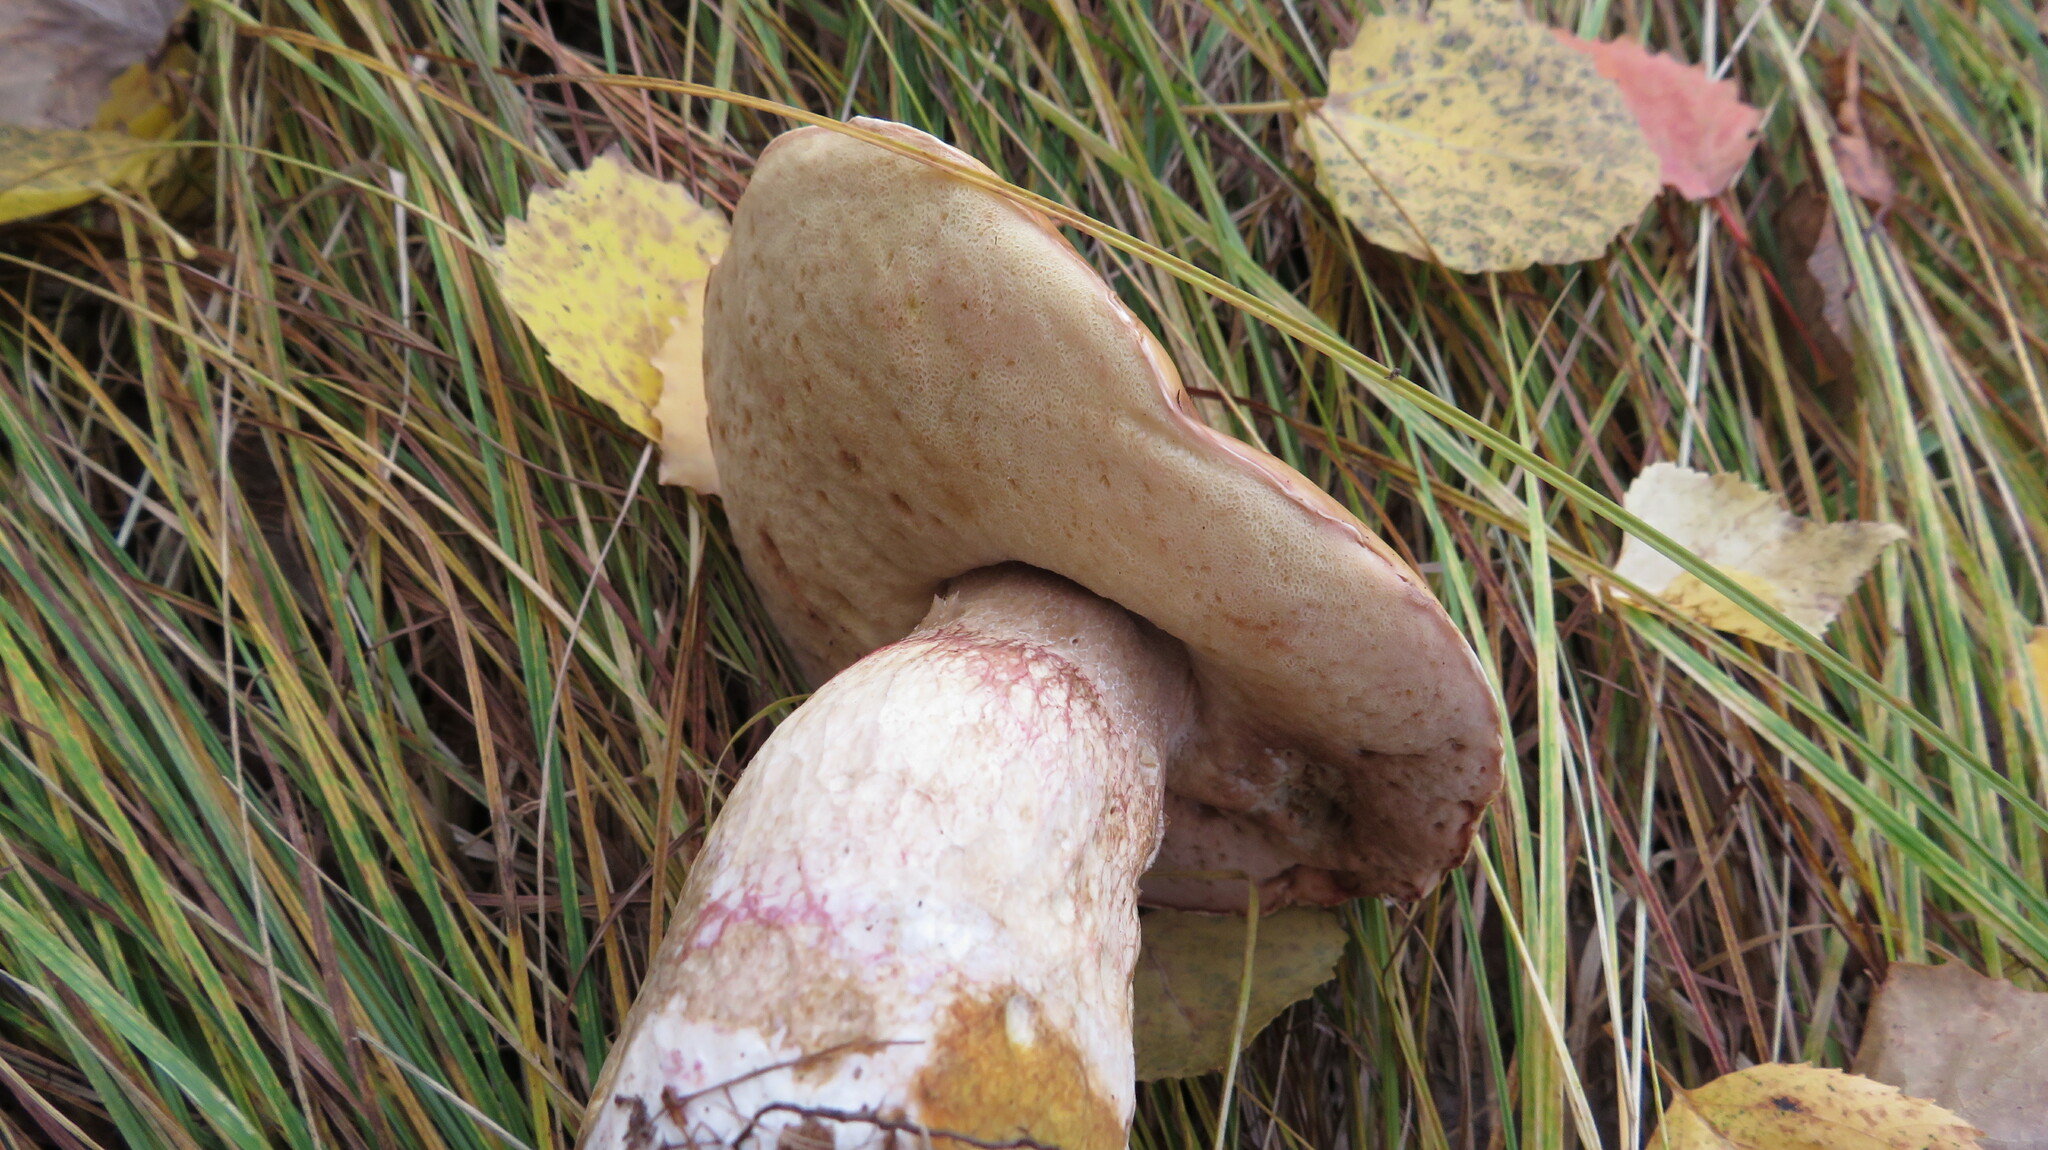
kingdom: Fungi
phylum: Basidiomycota
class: Agaricomycetes
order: Boletales
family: Boletaceae
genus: Boletus
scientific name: Boletus edulis
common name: Cep
